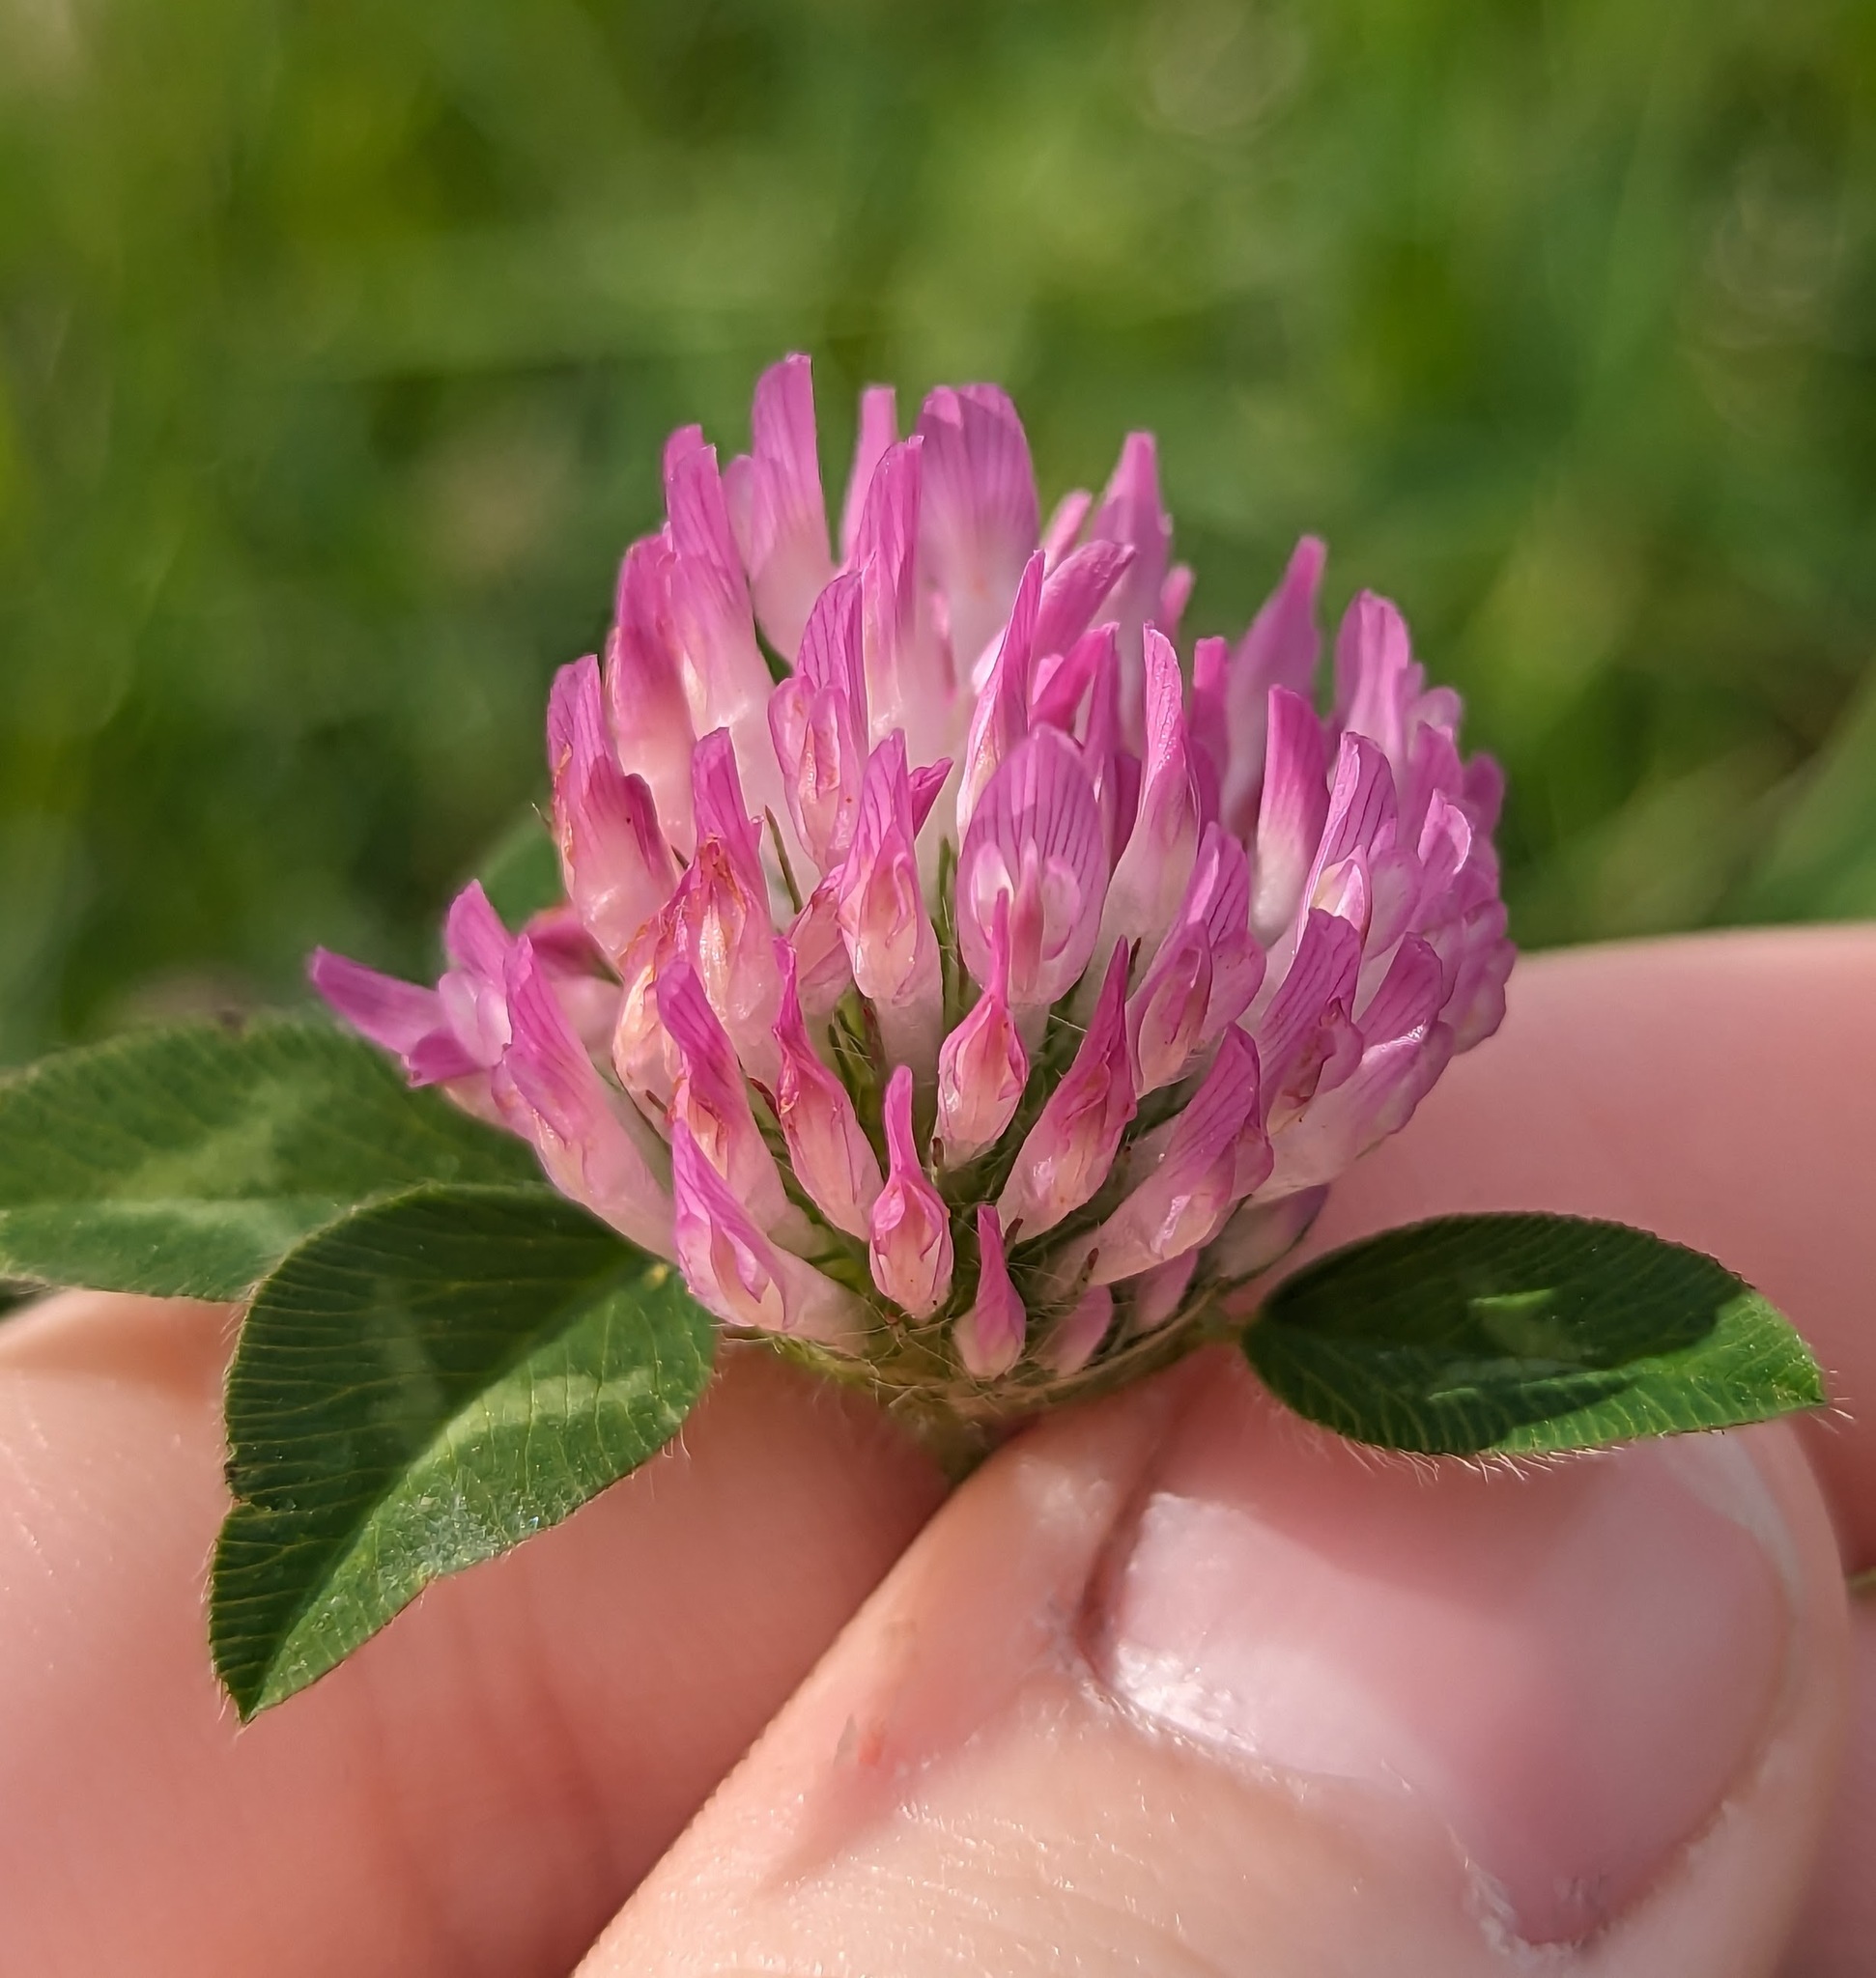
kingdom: Plantae
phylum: Tracheophyta
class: Magnoliopsida
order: Fabales
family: Fabaceae
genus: Trifolium
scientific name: Trifolium pratense
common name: Red clover
